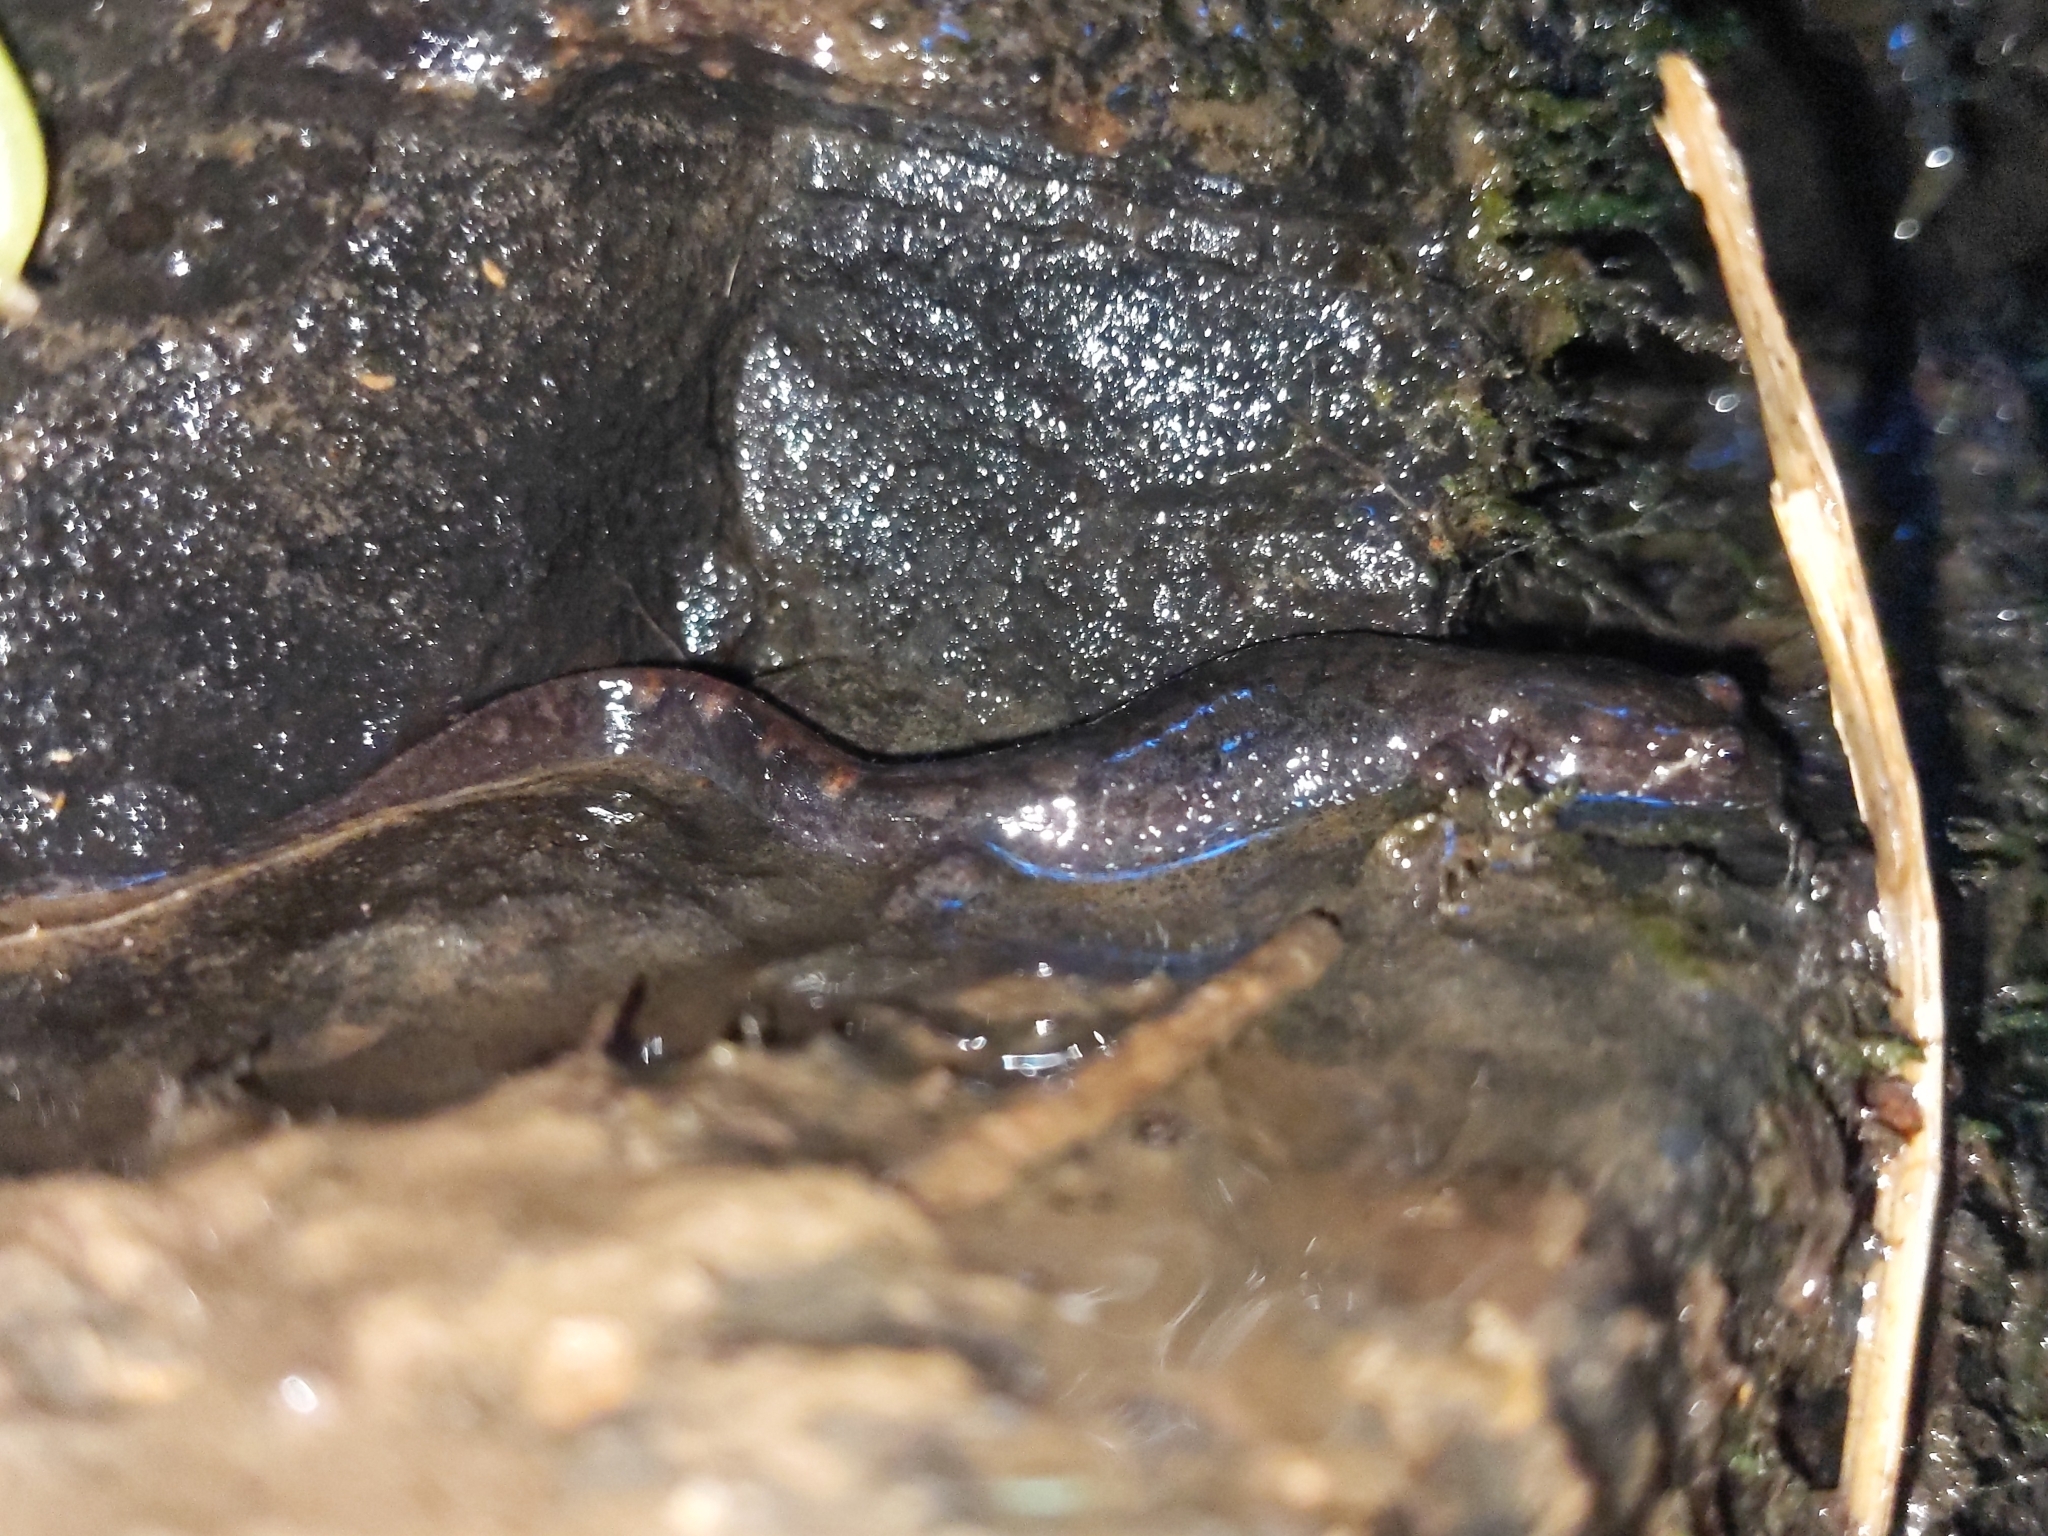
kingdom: Animalia
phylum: Chordata
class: Amphibia
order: Caudata
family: Plethodontidae
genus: Desmognathus
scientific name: Desmognathus monticola
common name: Seal salamander
